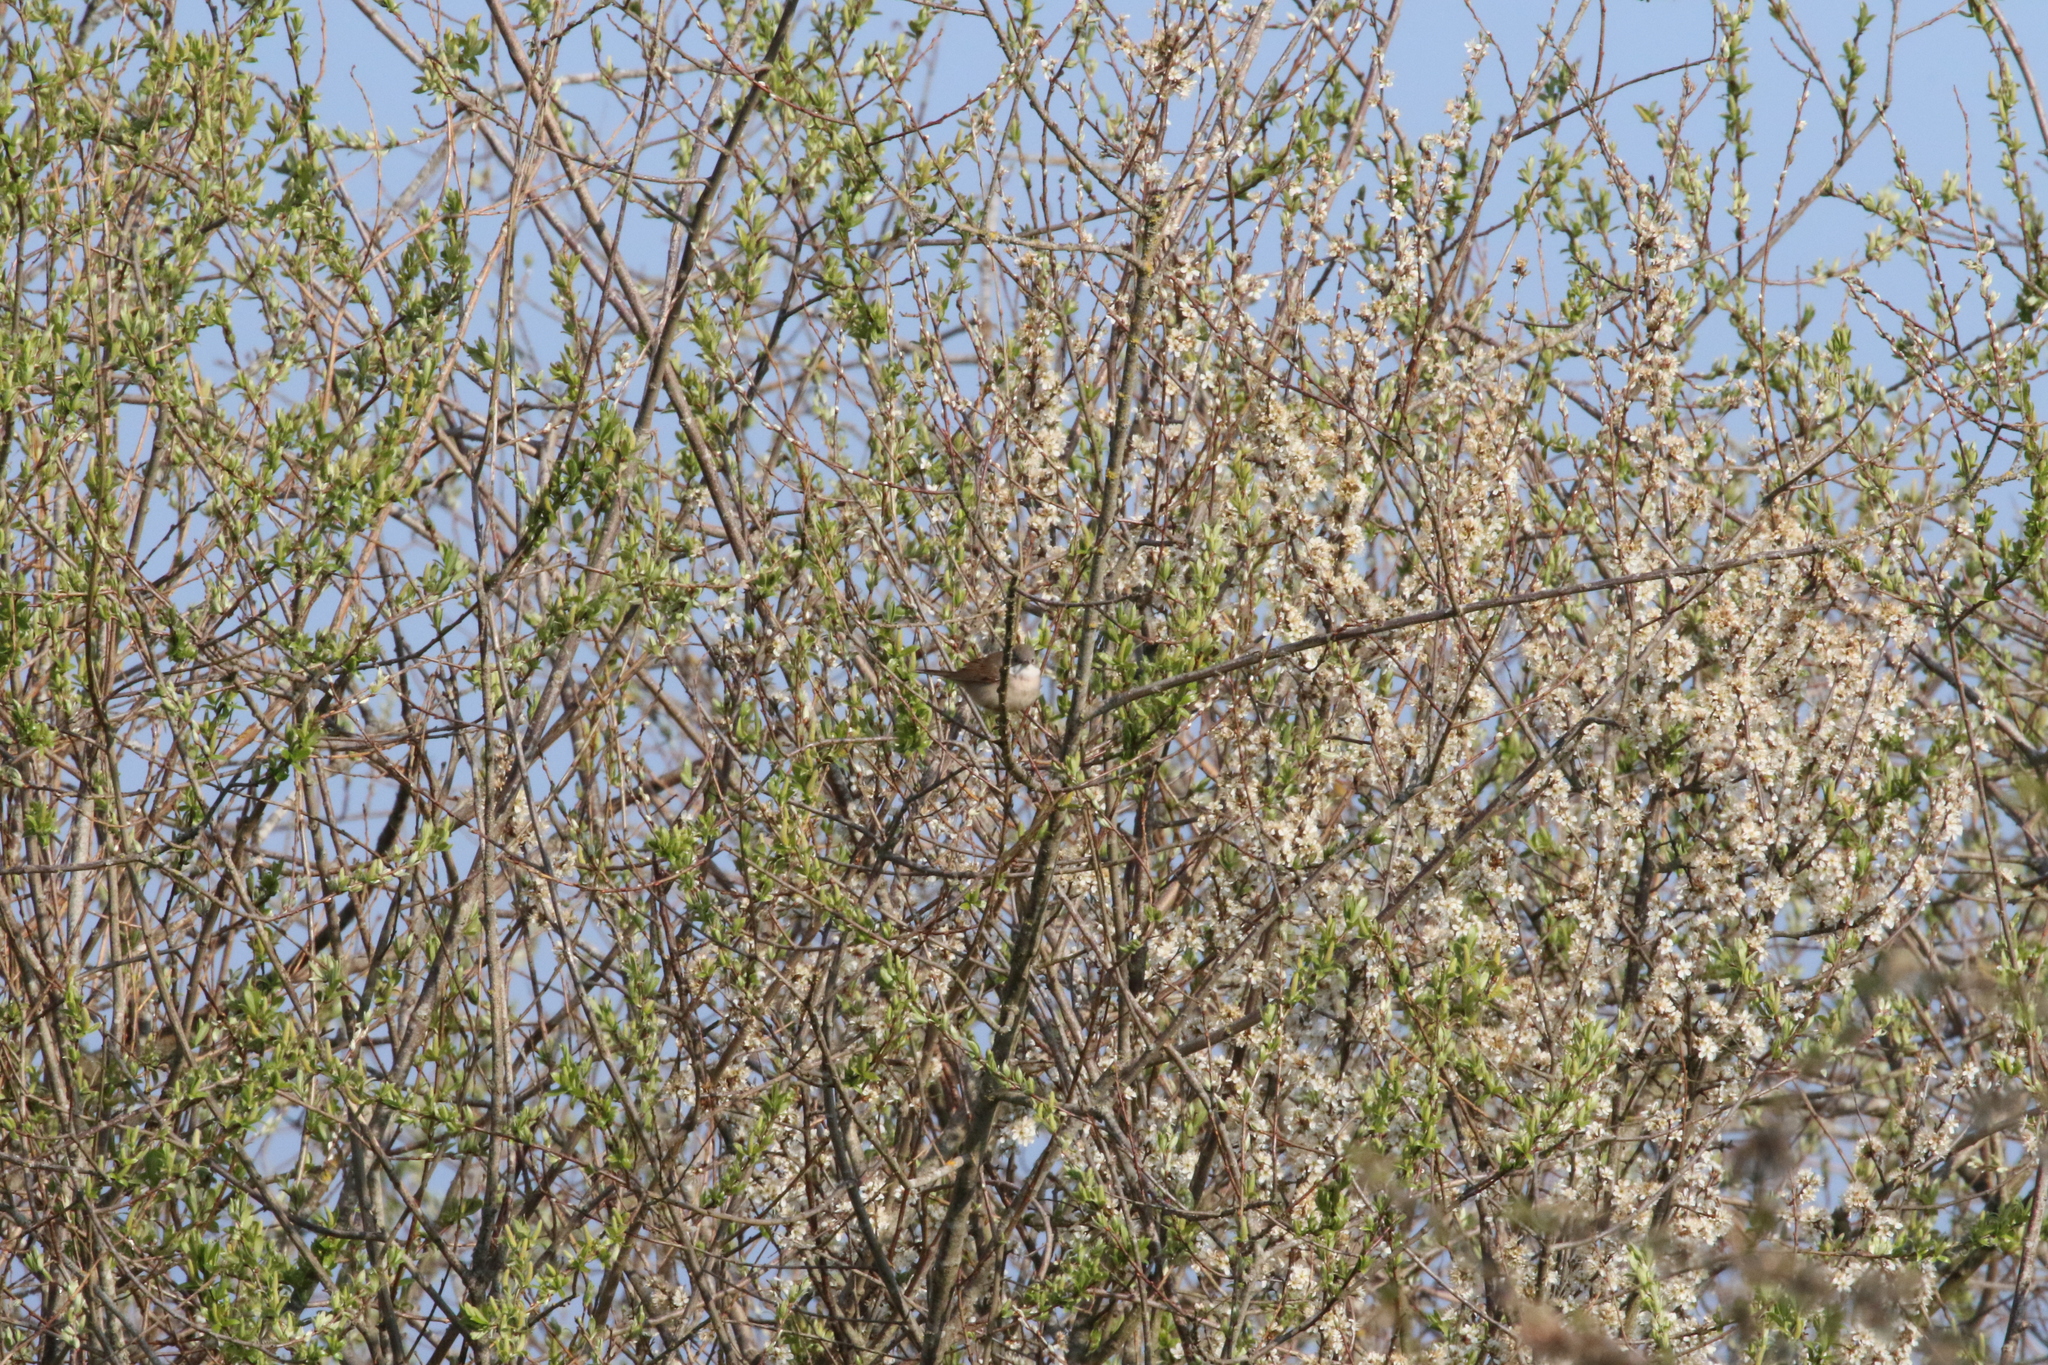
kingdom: Animalia
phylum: Chordata
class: Aves
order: Passeriformes
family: Sylviidae
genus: Sylvia
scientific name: Sylvia communis
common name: Common whitethroat
